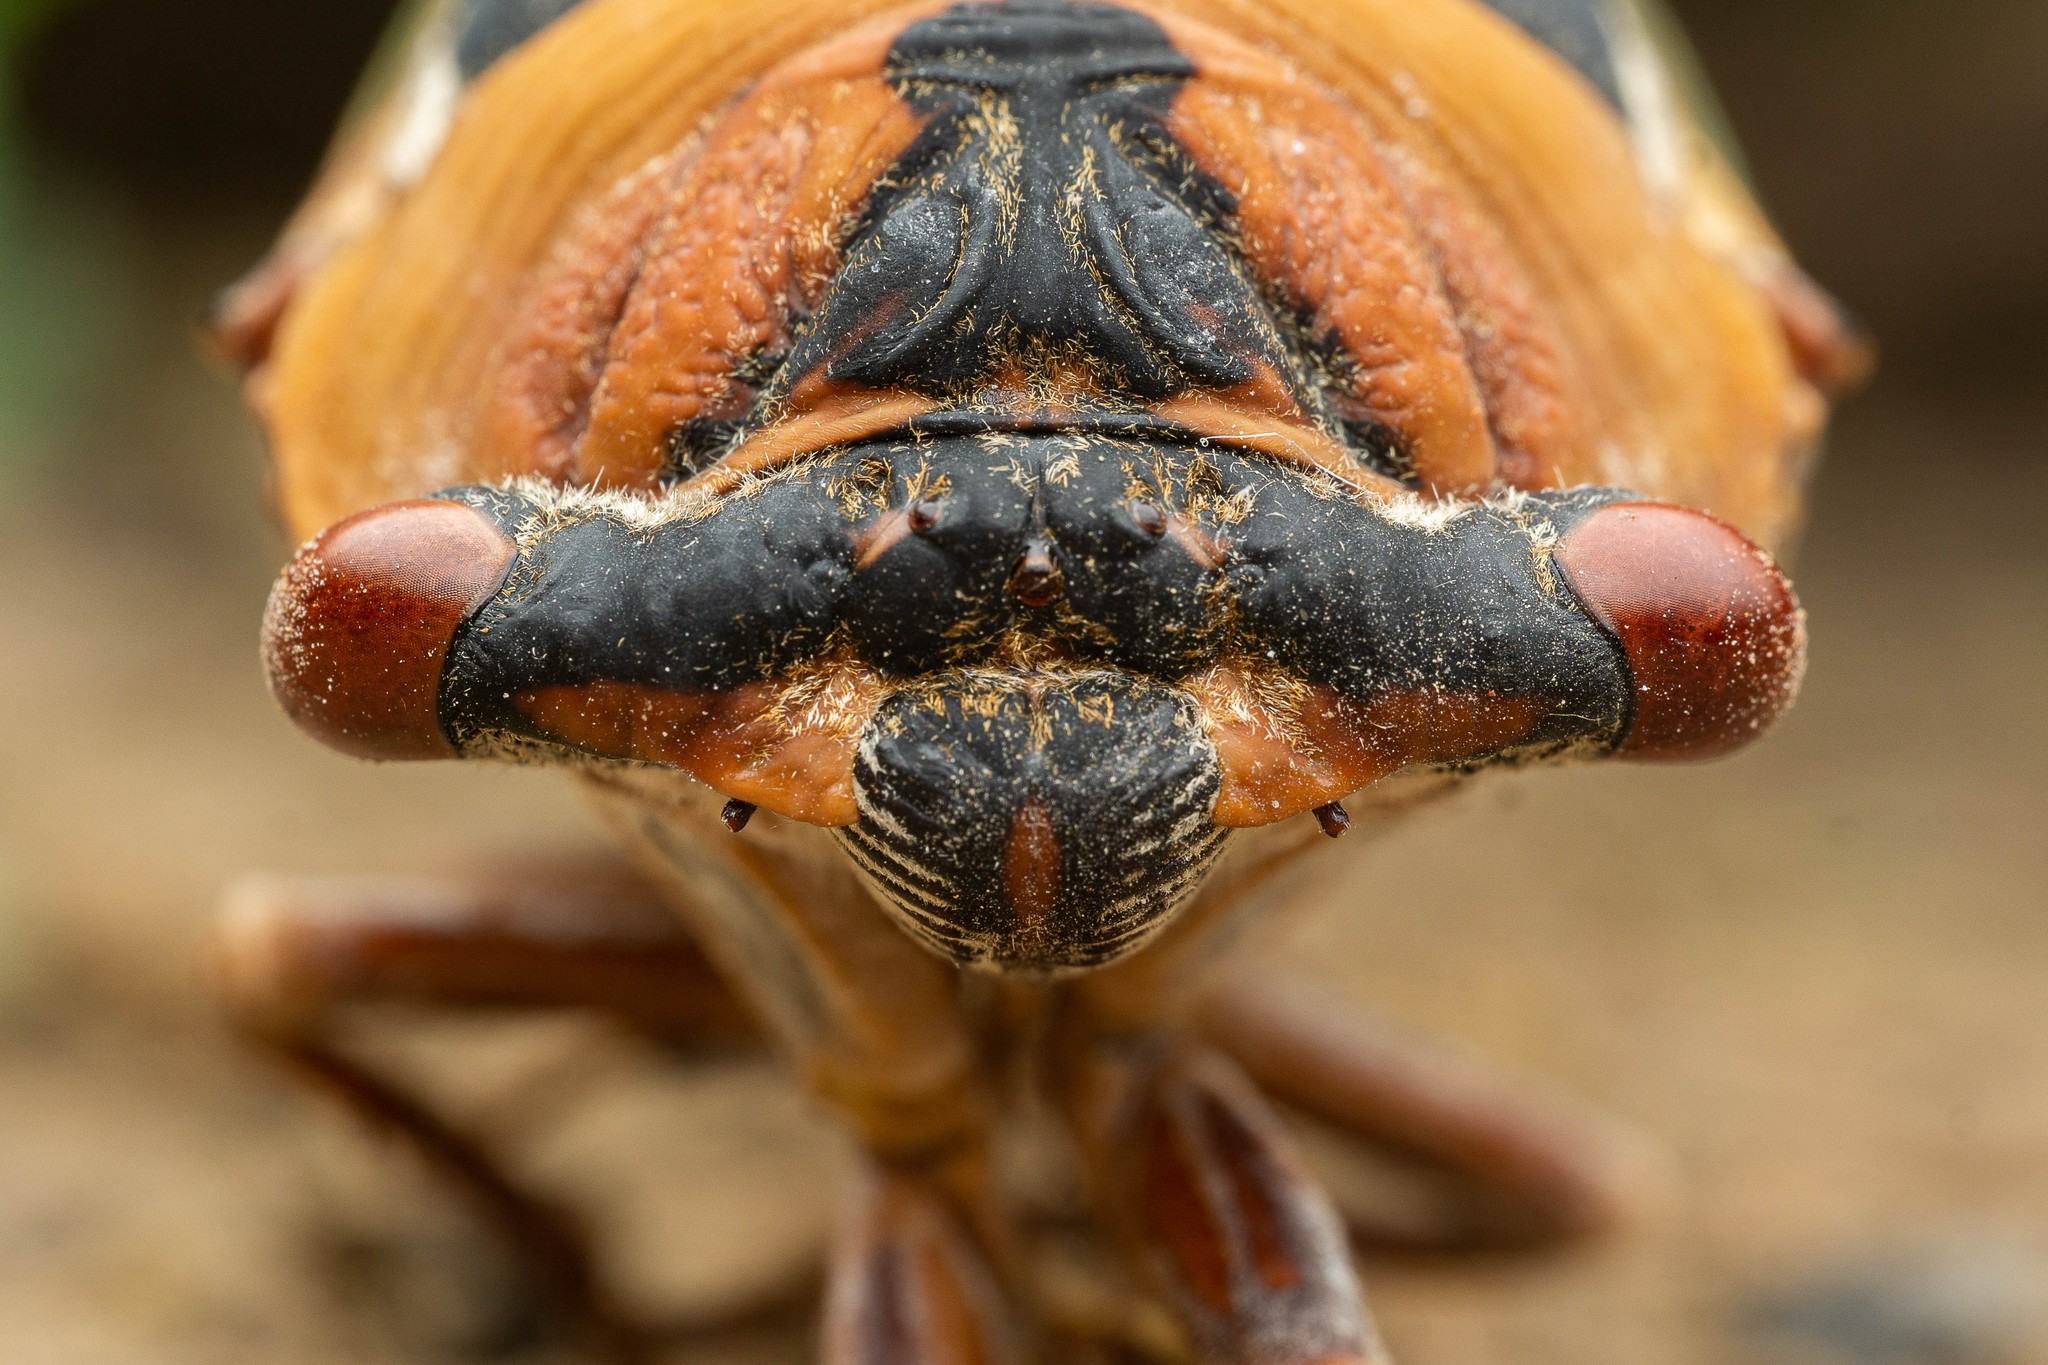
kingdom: Animalia
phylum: Arthropoda
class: Insecta
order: Hemiptera
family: Cicadidae
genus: Megatibicen
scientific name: Megatibicen cultriformis
